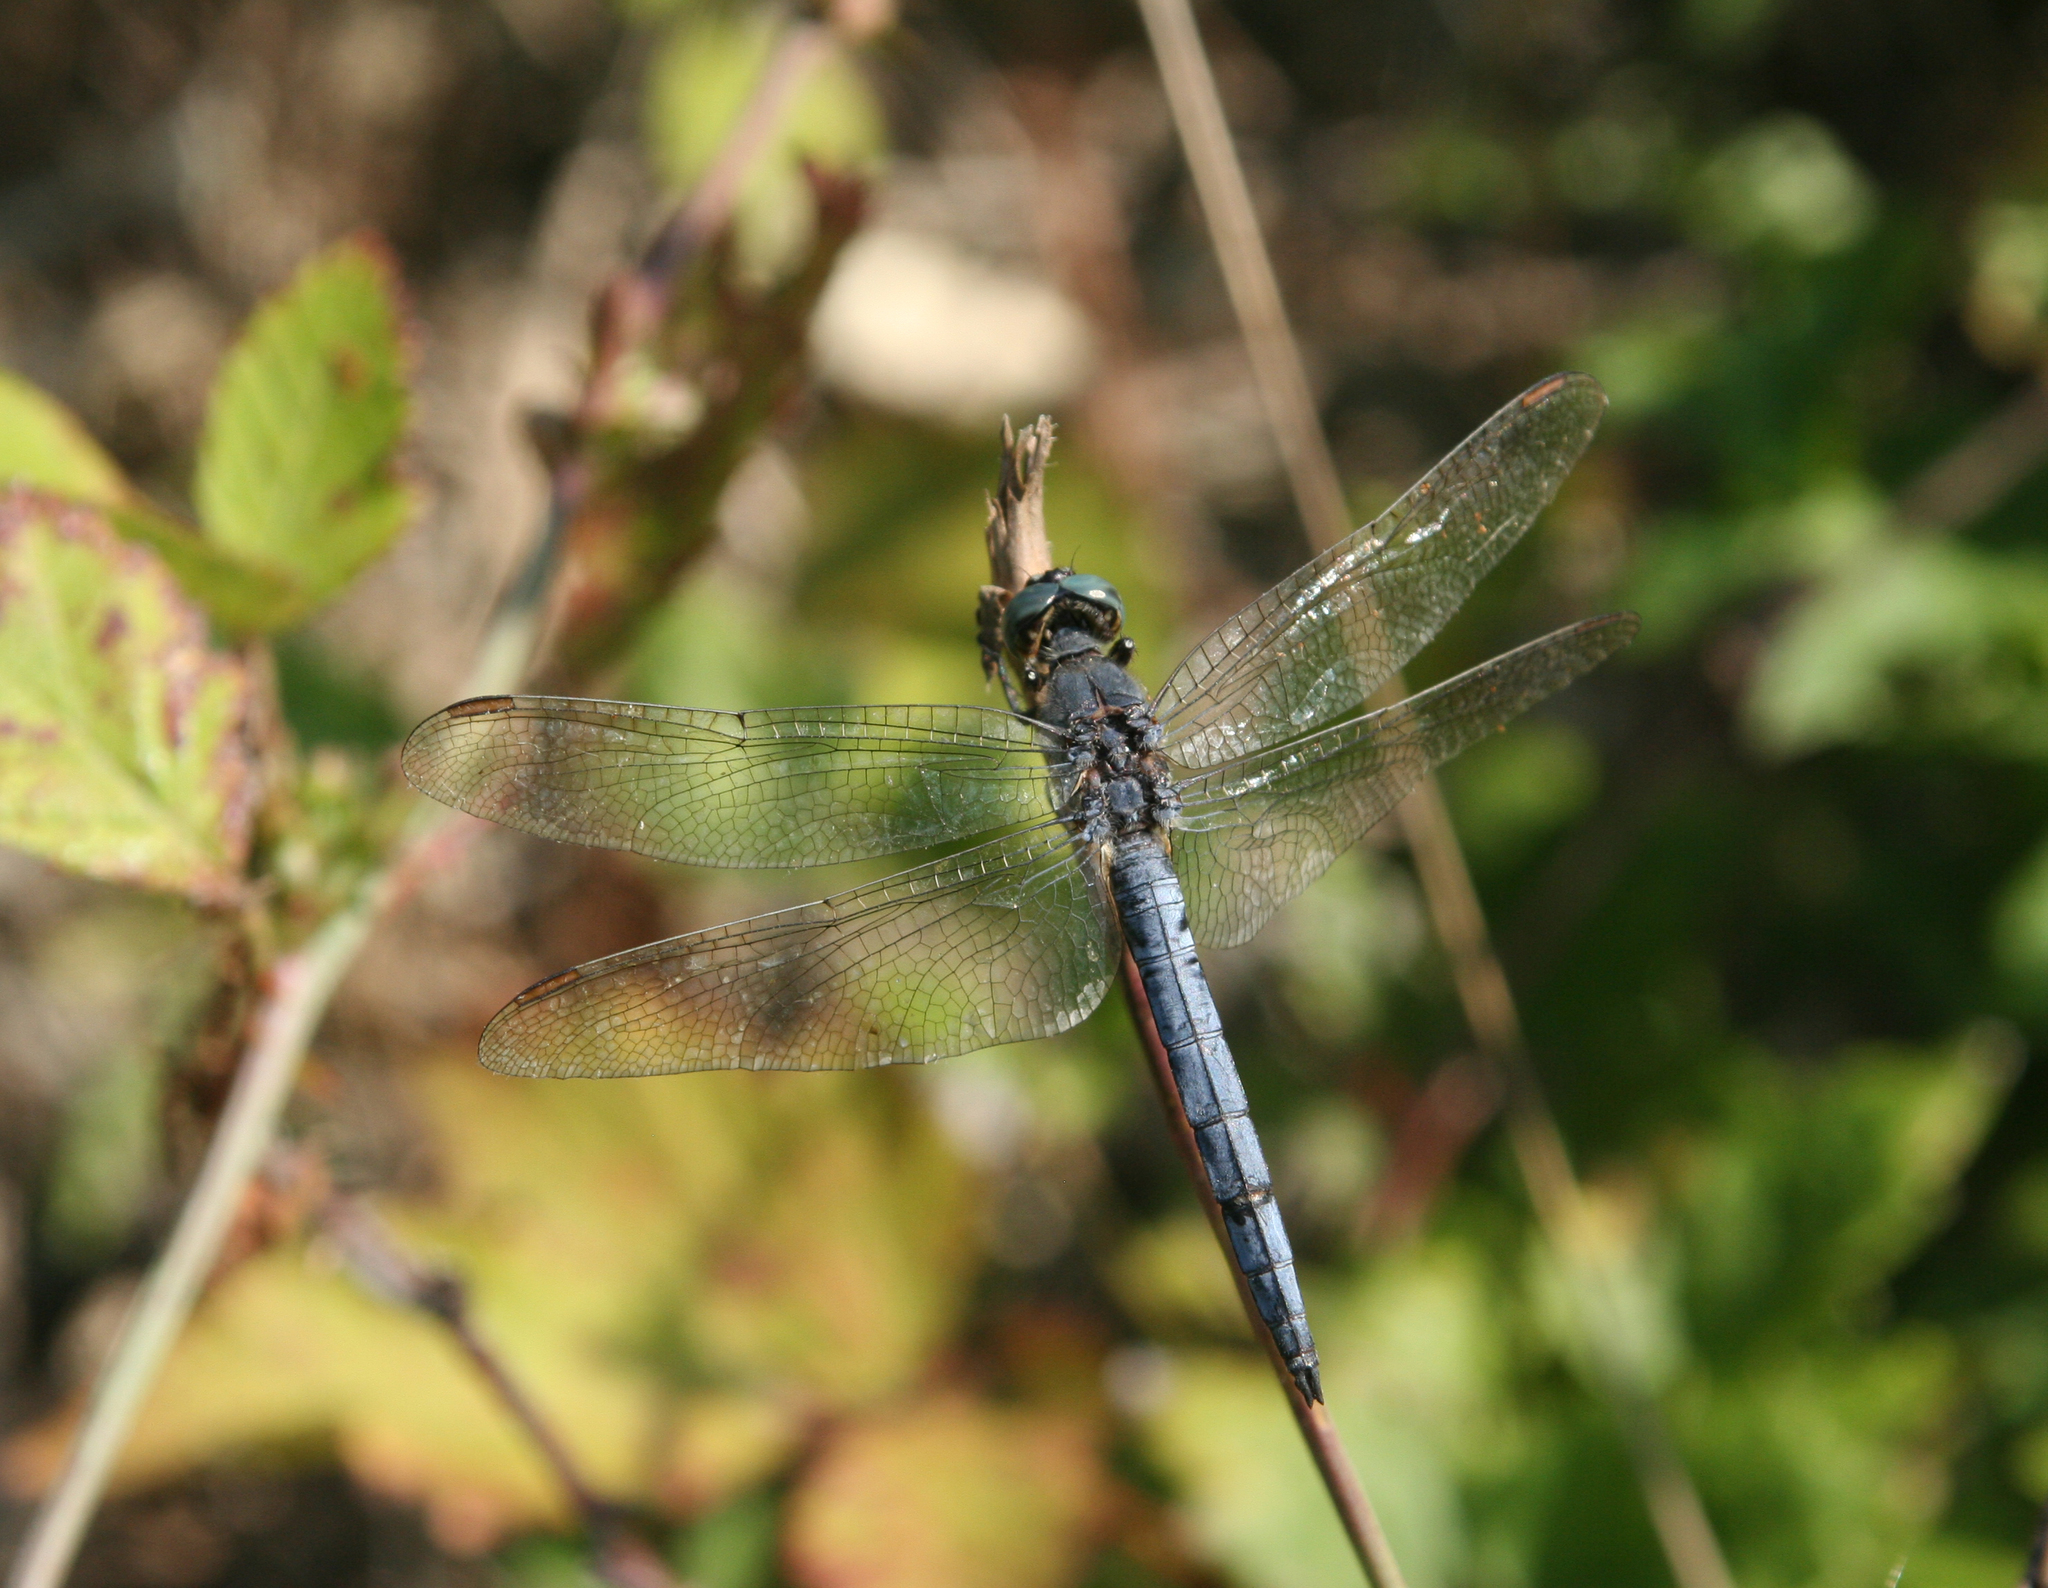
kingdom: Animalia
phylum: Arthropoda
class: Insecta
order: Odonata
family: Libellulidae
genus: Orthetrum
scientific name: Orthetrum coerulescens
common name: Keeled skimmer
